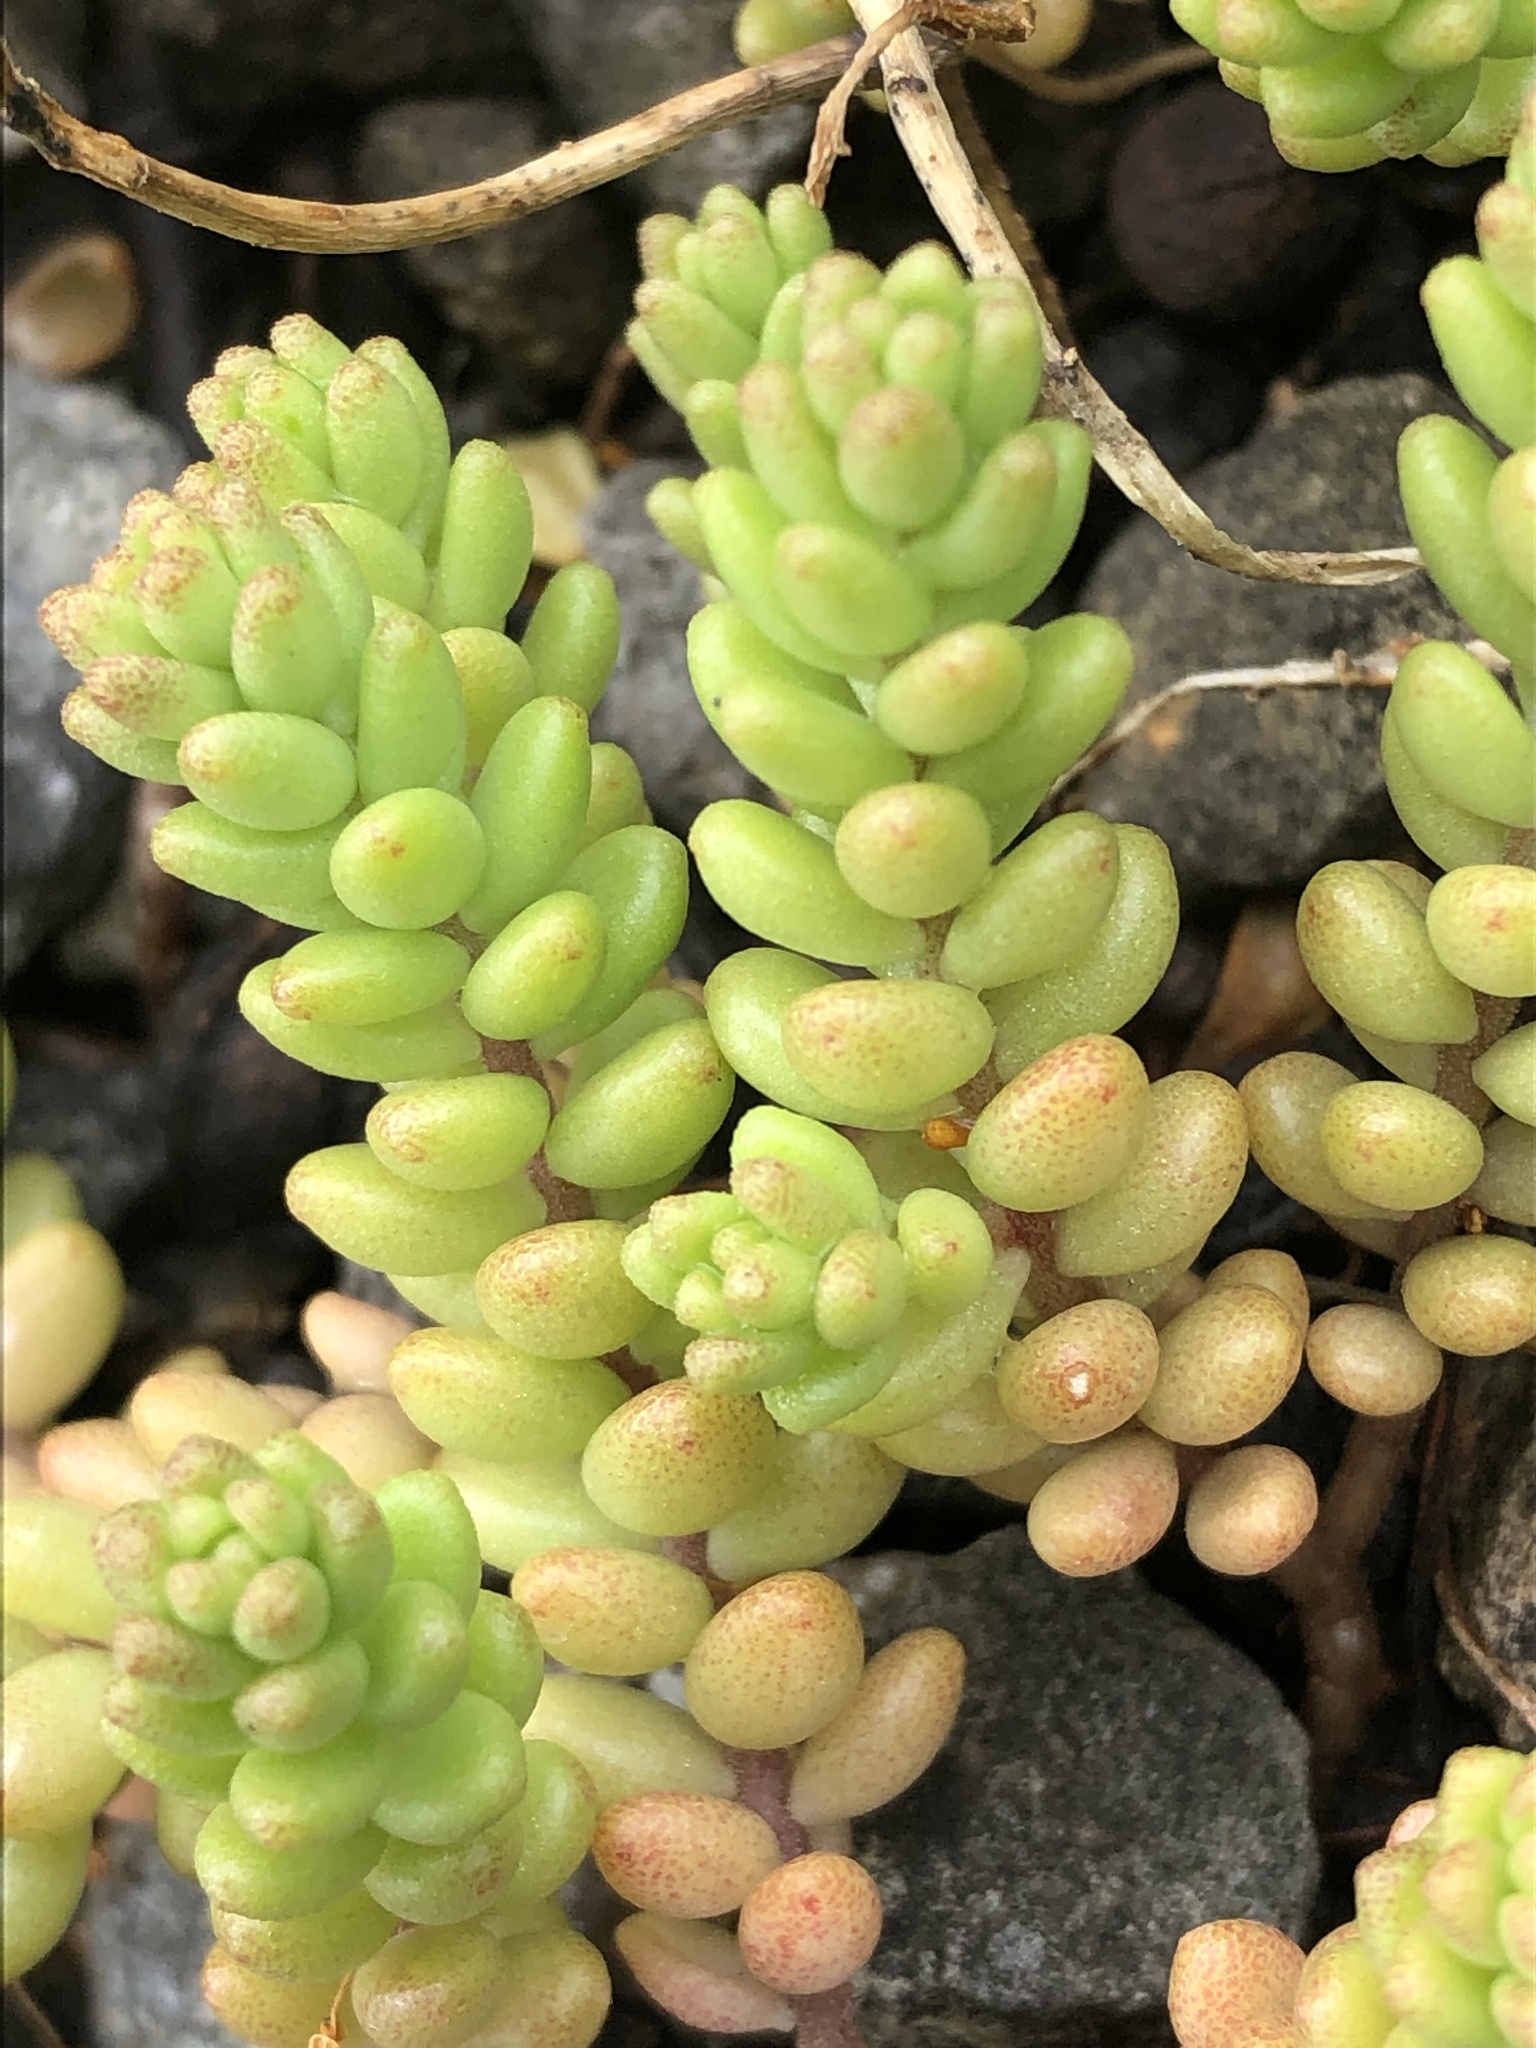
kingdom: Plantae
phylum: Tracheophyta
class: Magnoliopsida
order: Saxifragales
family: Crassulaceae
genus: Sedum
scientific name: Sedum album
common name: White stonecrop
